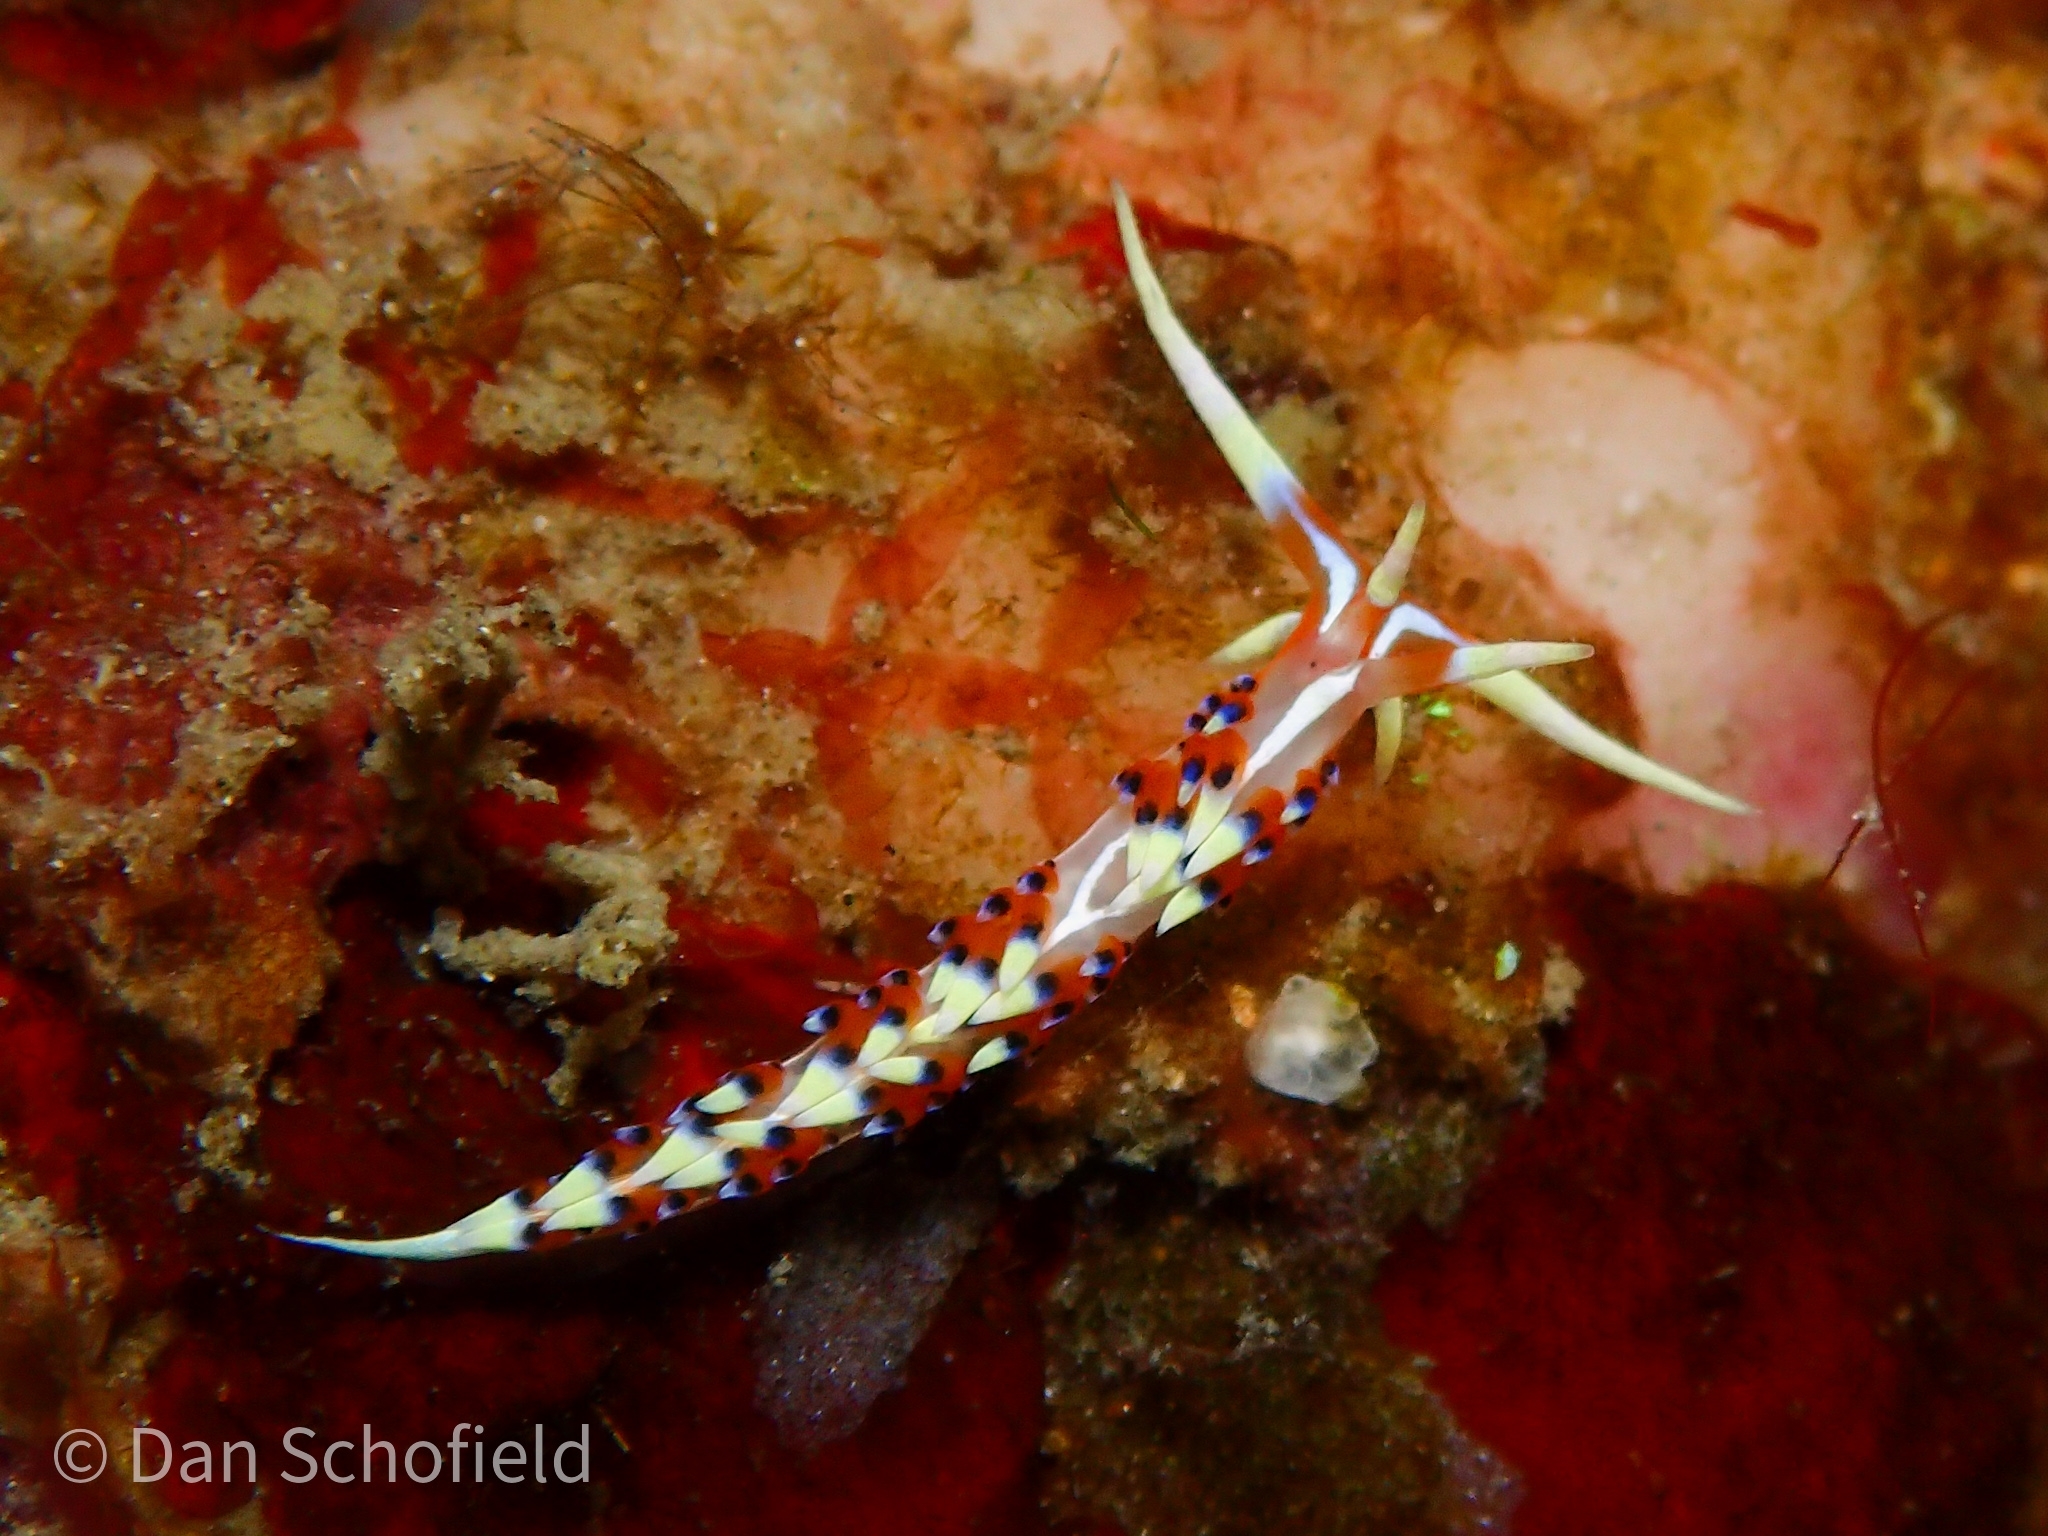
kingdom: Animalia
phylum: Mollusca
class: Gastropoda
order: Nudibranchia
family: Facelinidae
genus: Caloria
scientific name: Caloria indica
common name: Sea slug
